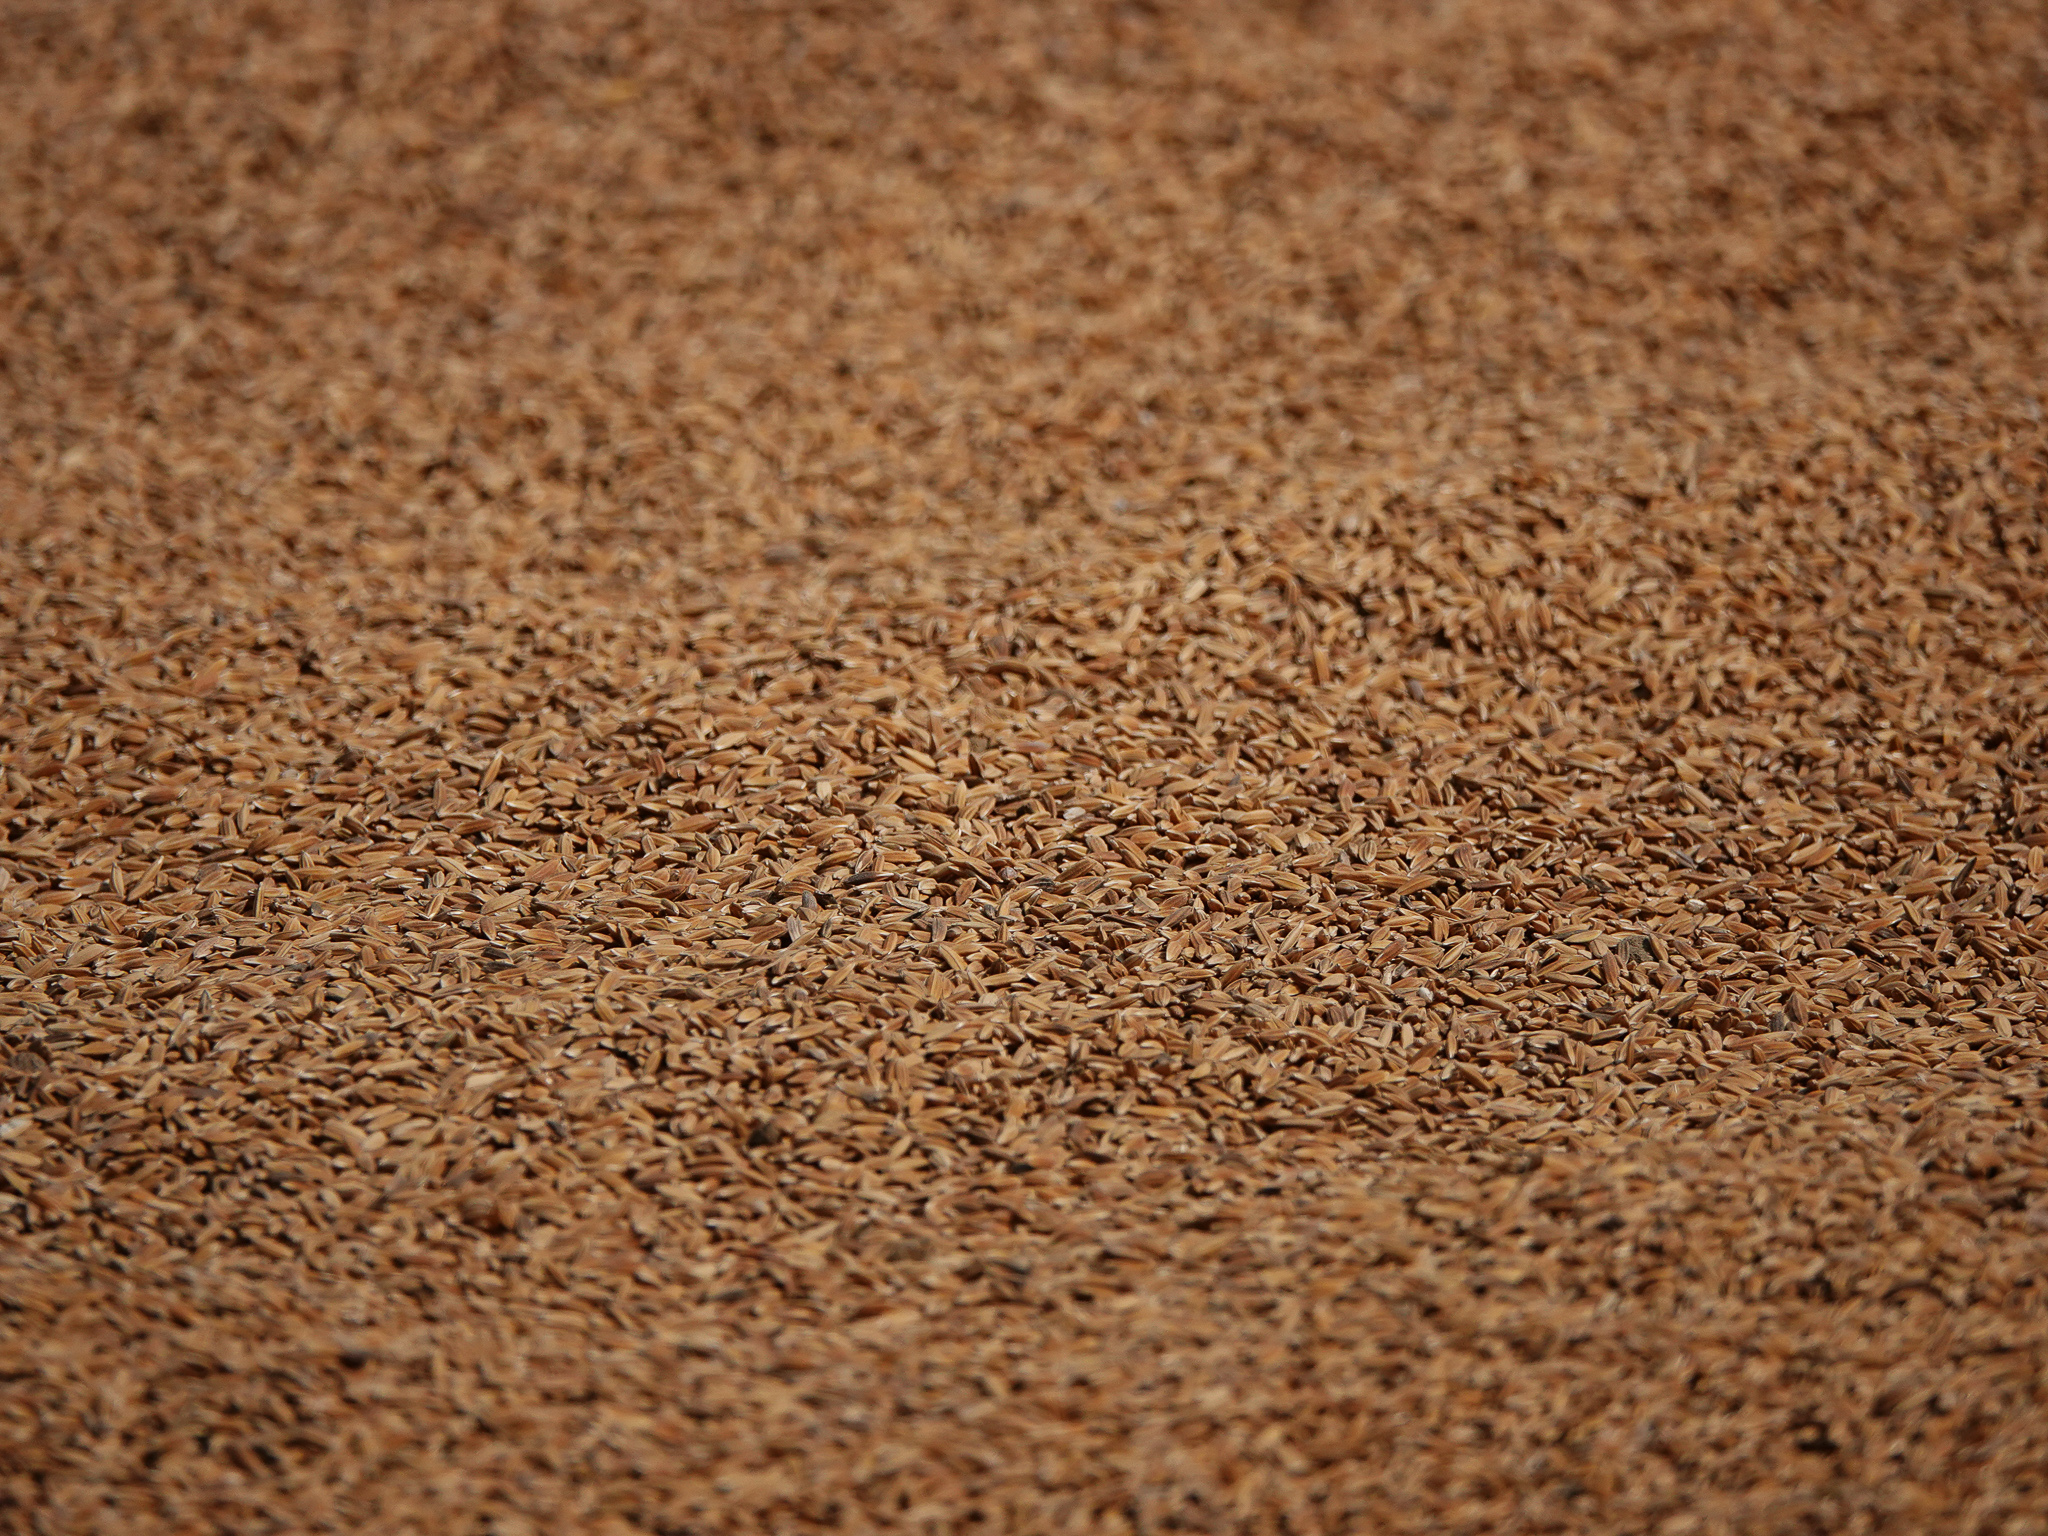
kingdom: Plantae
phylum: Tracheophyta
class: Liliopsida
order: Poales
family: Poaceae
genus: Oryza
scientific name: Oryza sativa
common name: Rice
